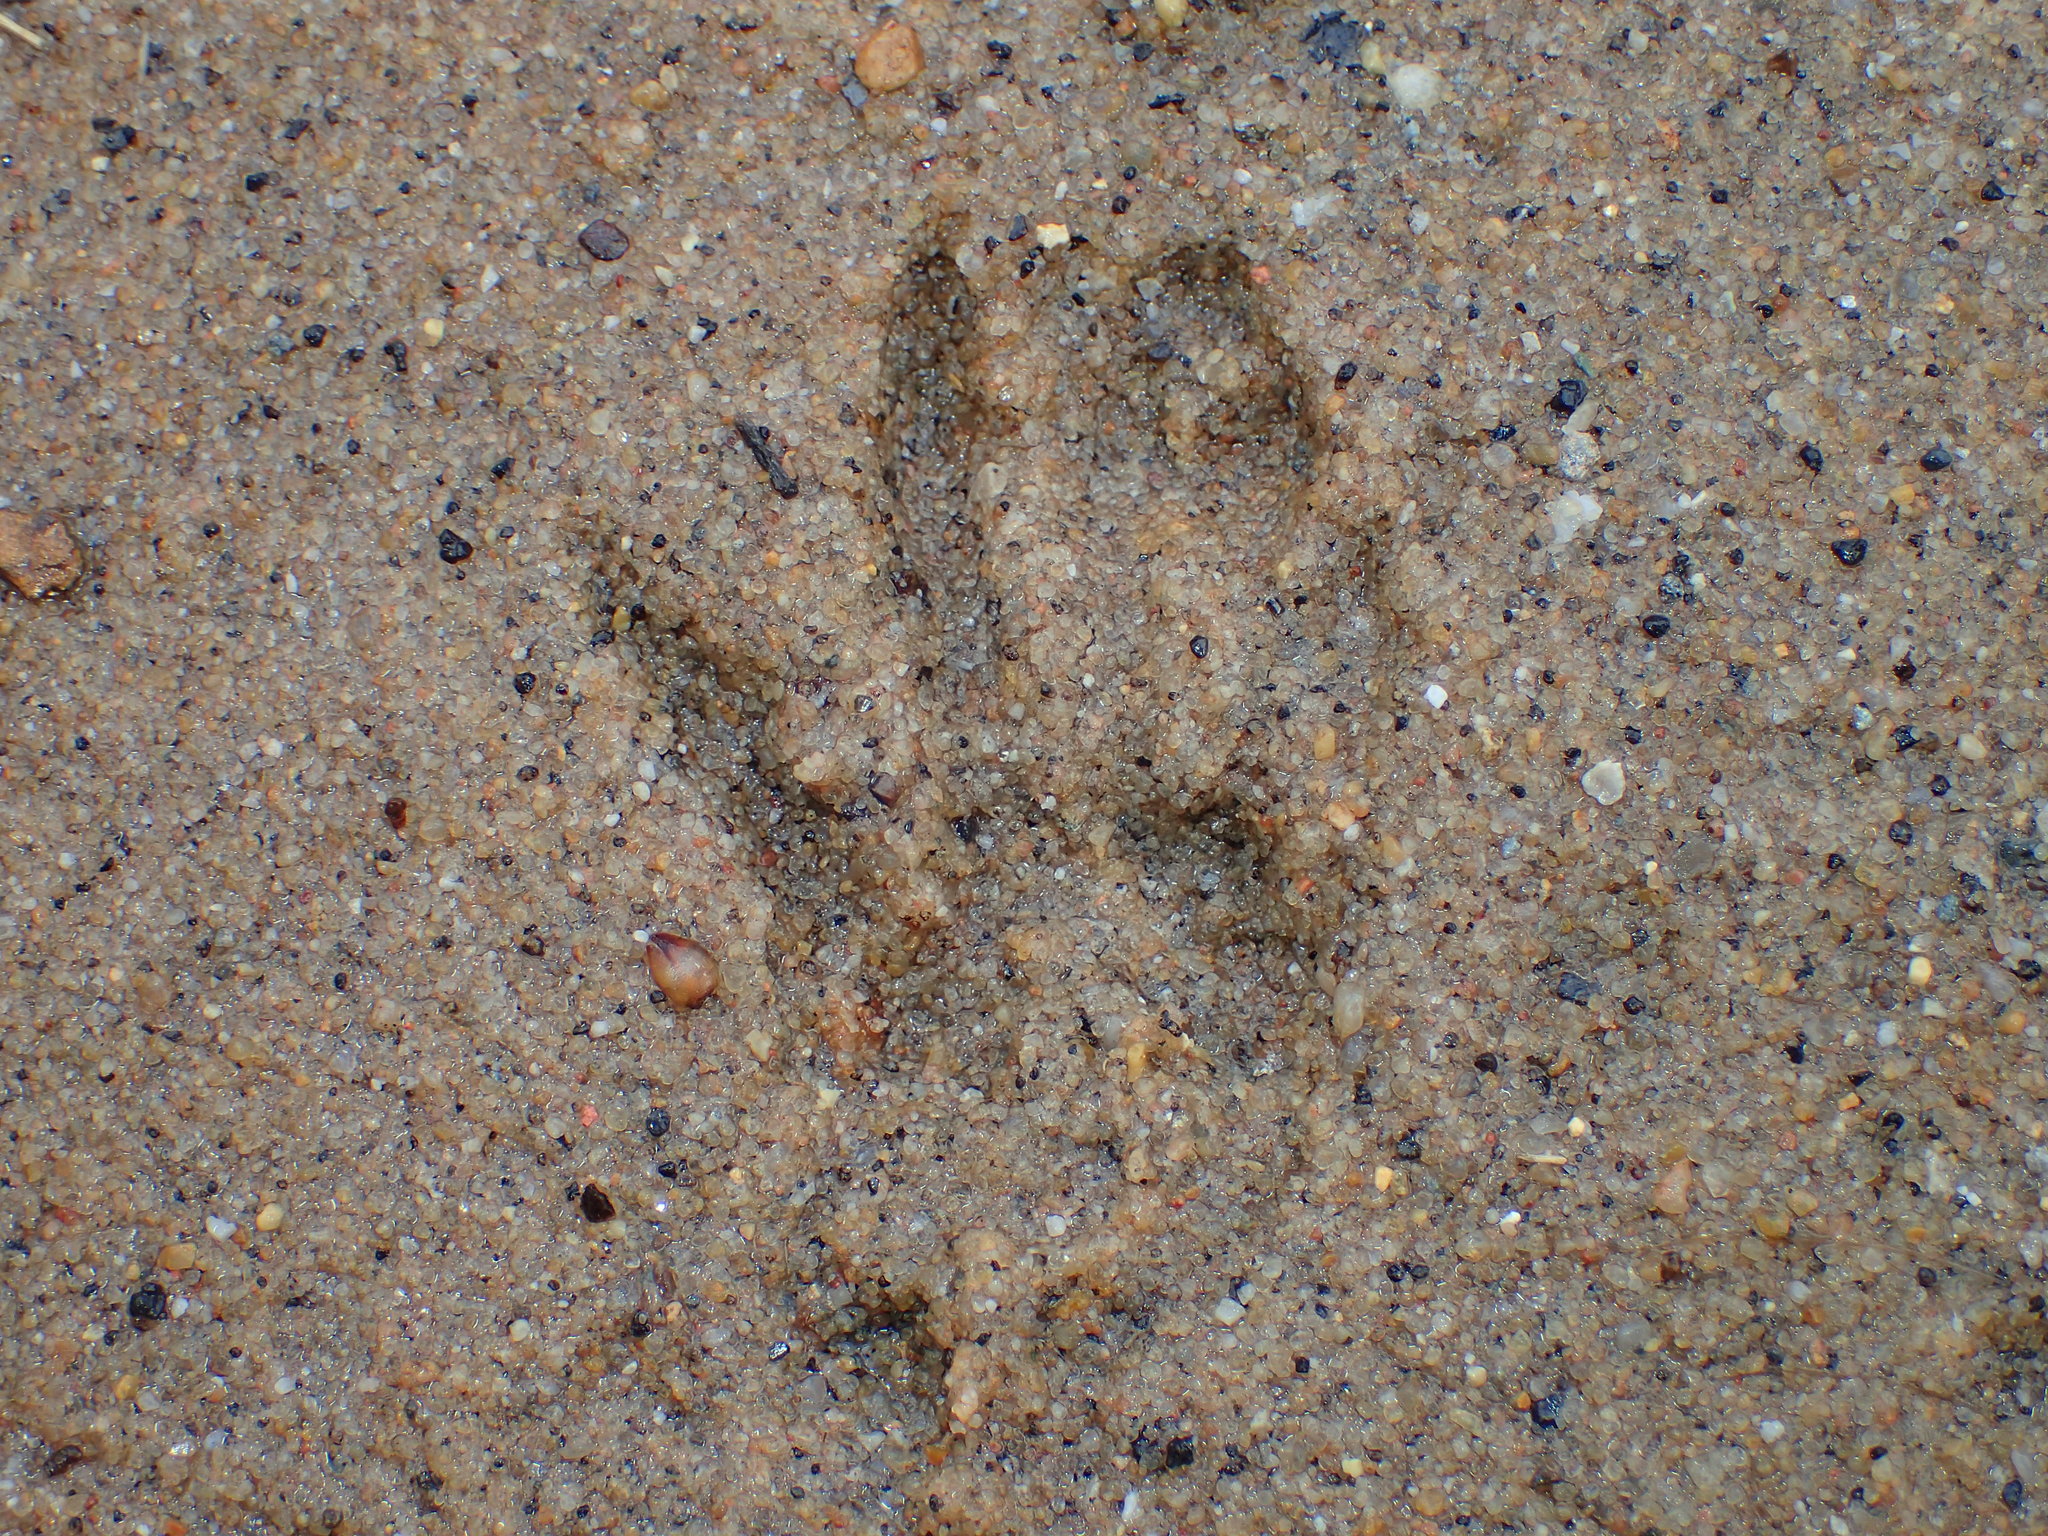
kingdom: Animalia
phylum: Chordata
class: Mammalia
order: Carnivora
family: Procyonidae
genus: Procyon
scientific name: Procyon lotor
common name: Raccoon
